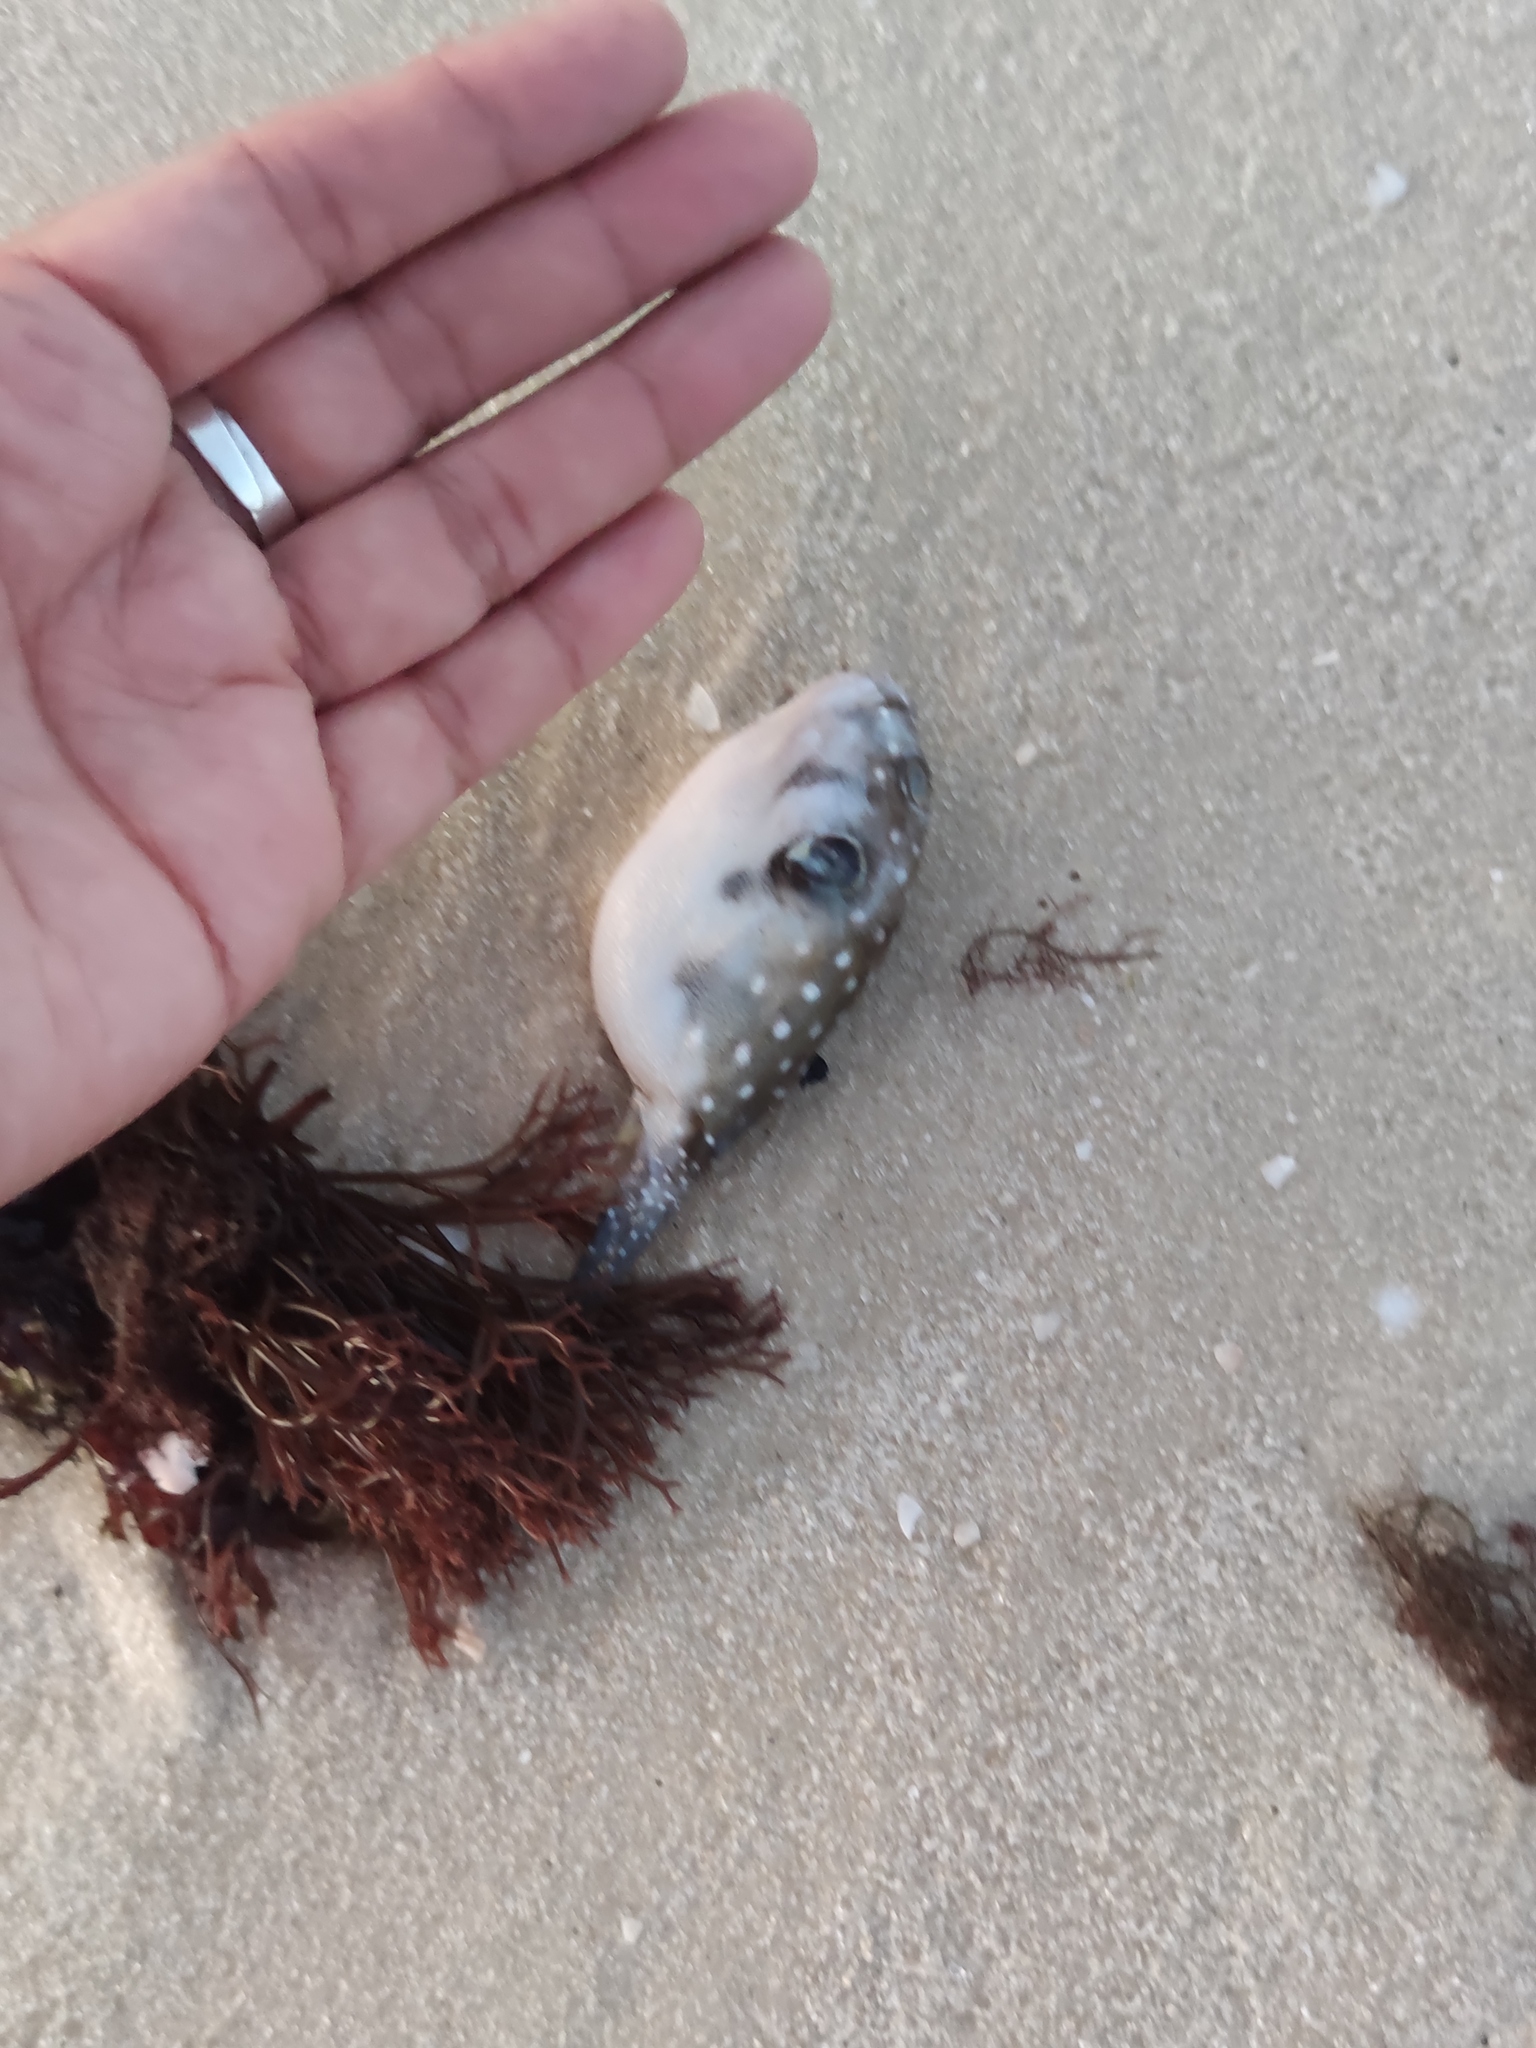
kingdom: Animalia
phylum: Chordata
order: Tetraodontiformes
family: Tetraodontidae
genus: Arothron
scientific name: Arothron hispidus
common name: Stripebelly puffer
